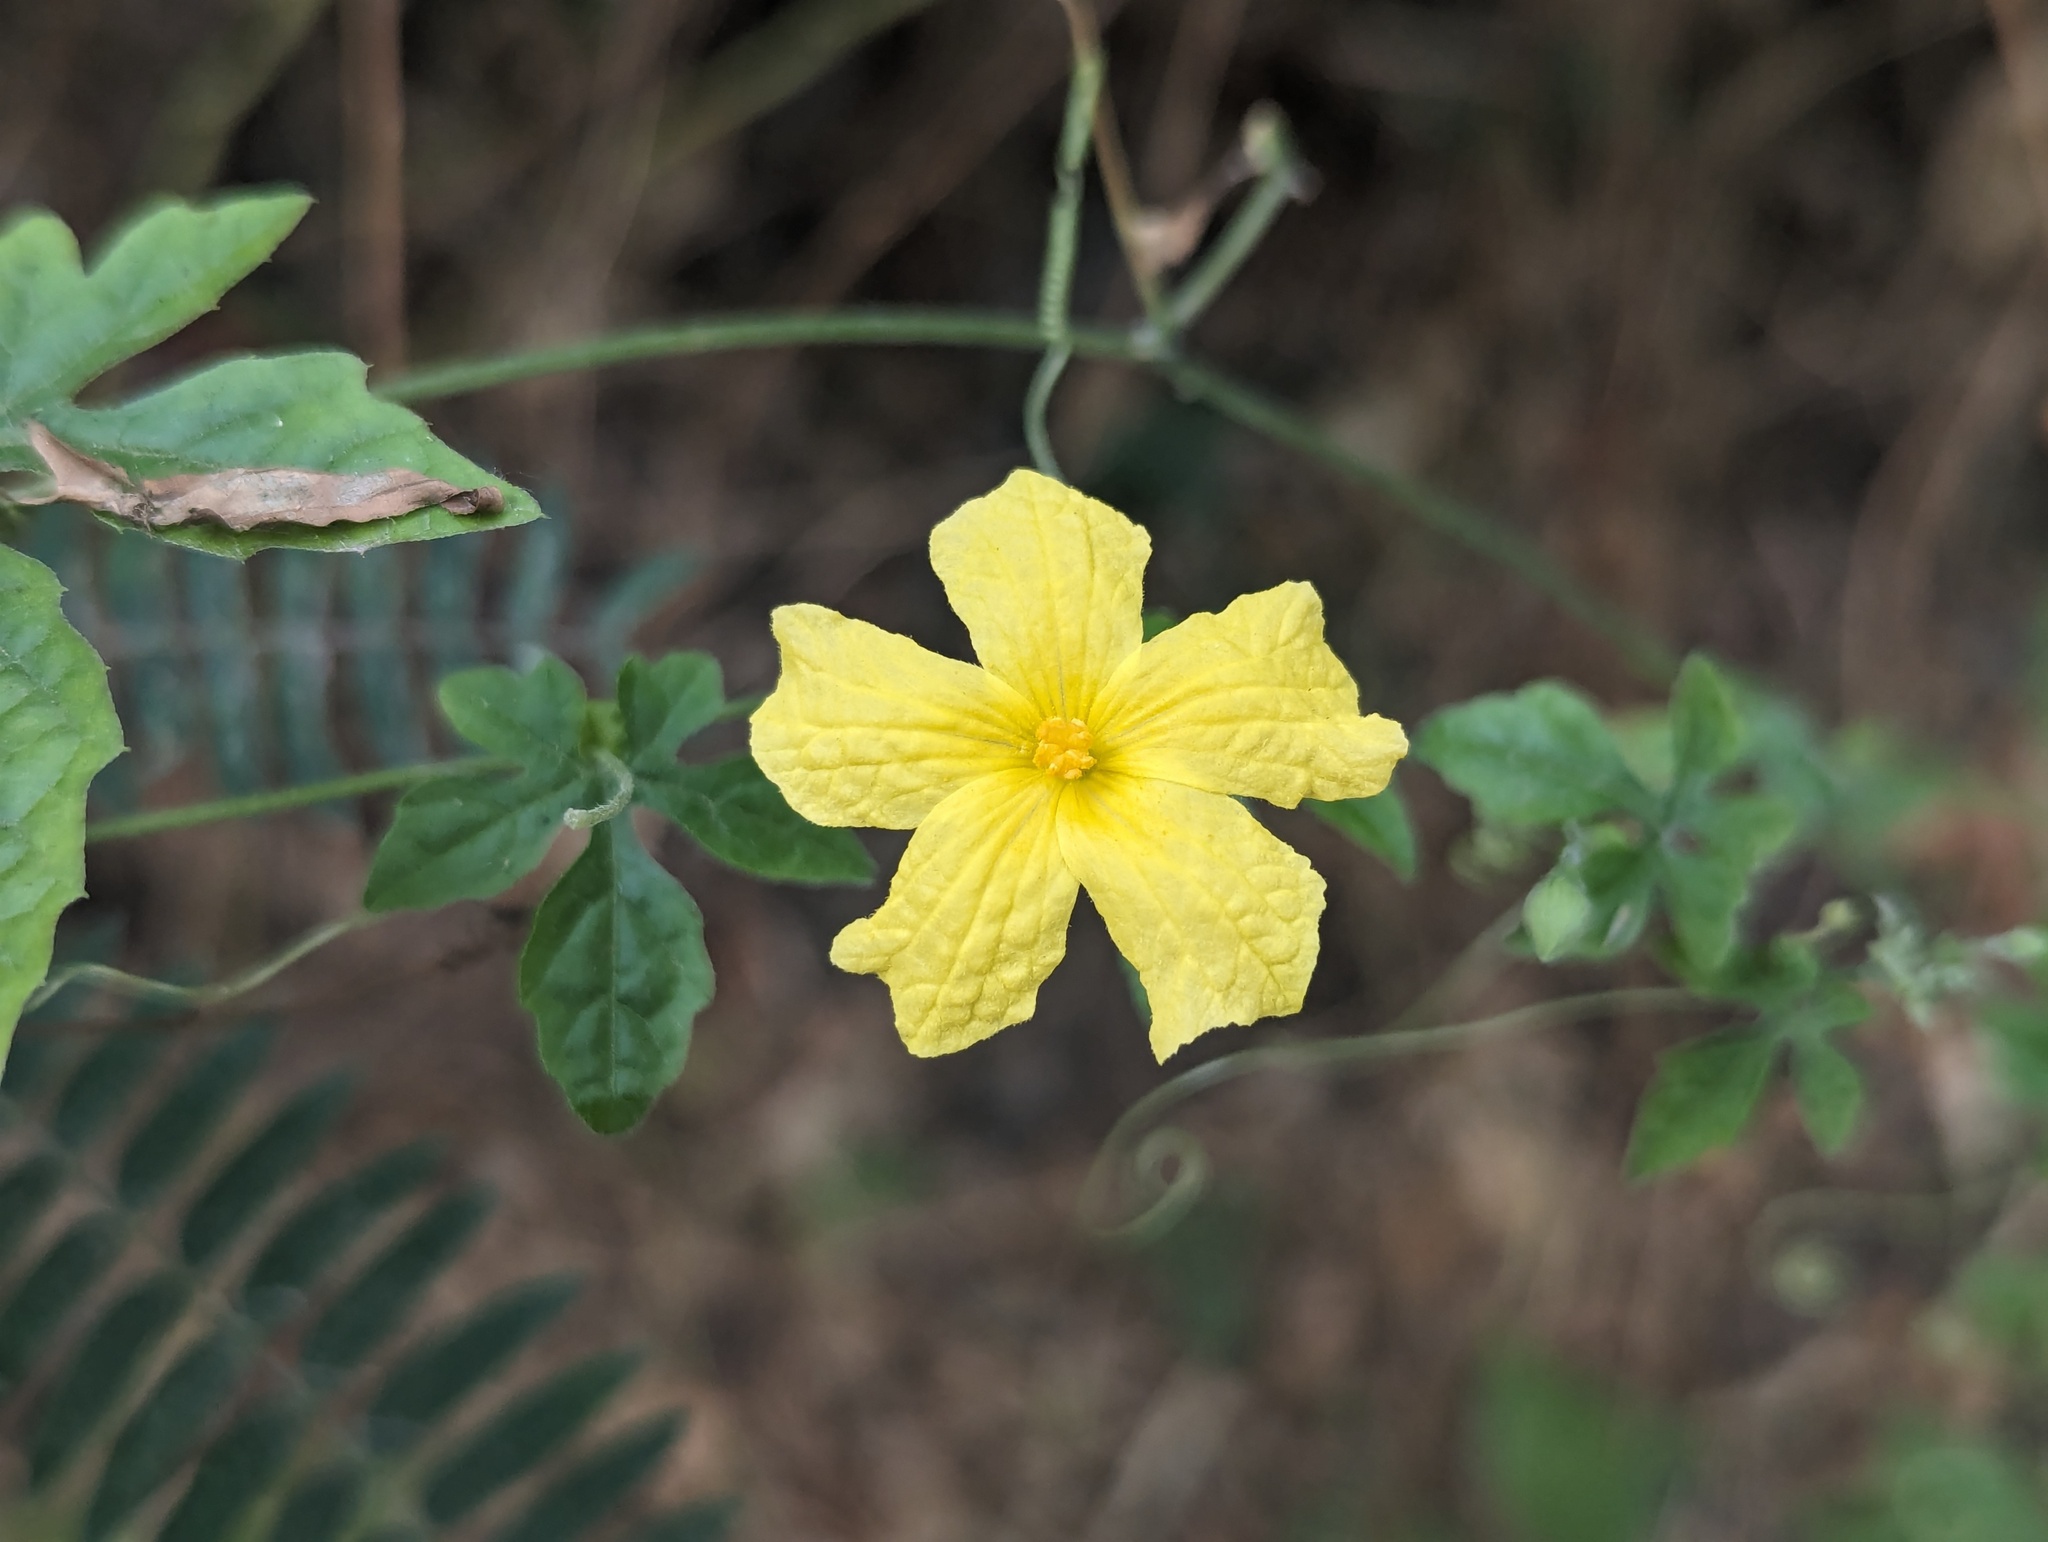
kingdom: Plantae
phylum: Tracheophyta
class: Magnoliopsida
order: Cucurbitales
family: Cucurbitaceae
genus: Momordica
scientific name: Momordica charantia
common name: Balsampear
